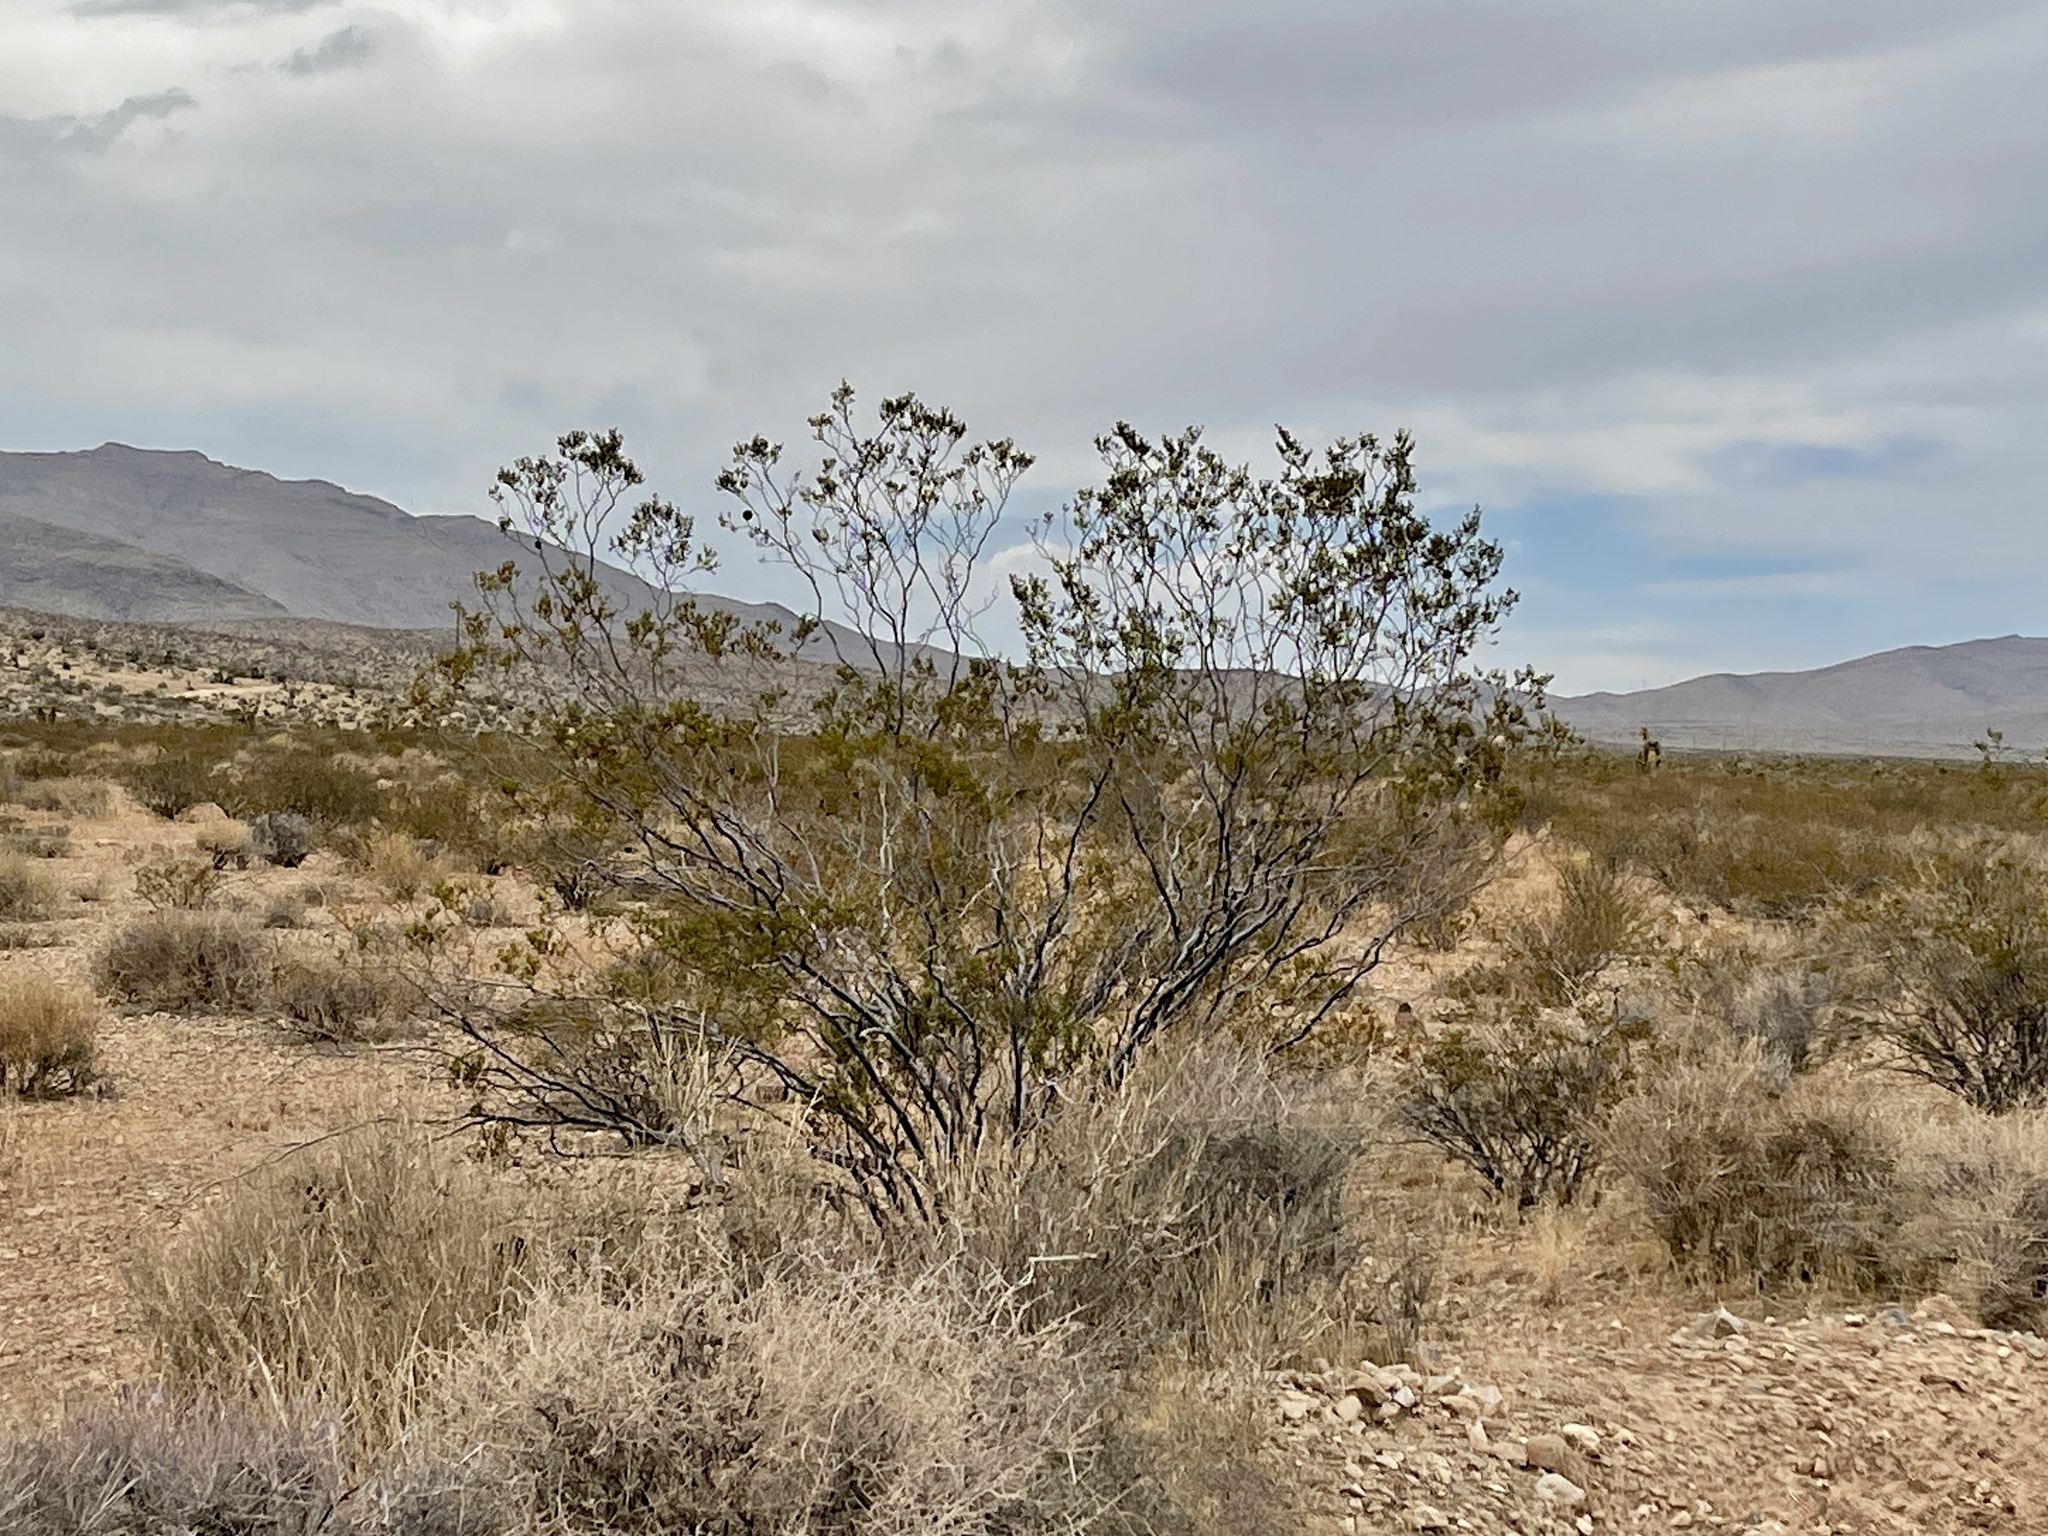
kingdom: Plantae
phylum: Tracheophyta
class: Magnoliopsida
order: Zygophyllales
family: Zygophyllaceae
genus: Larrea
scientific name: Larrea tridentata
